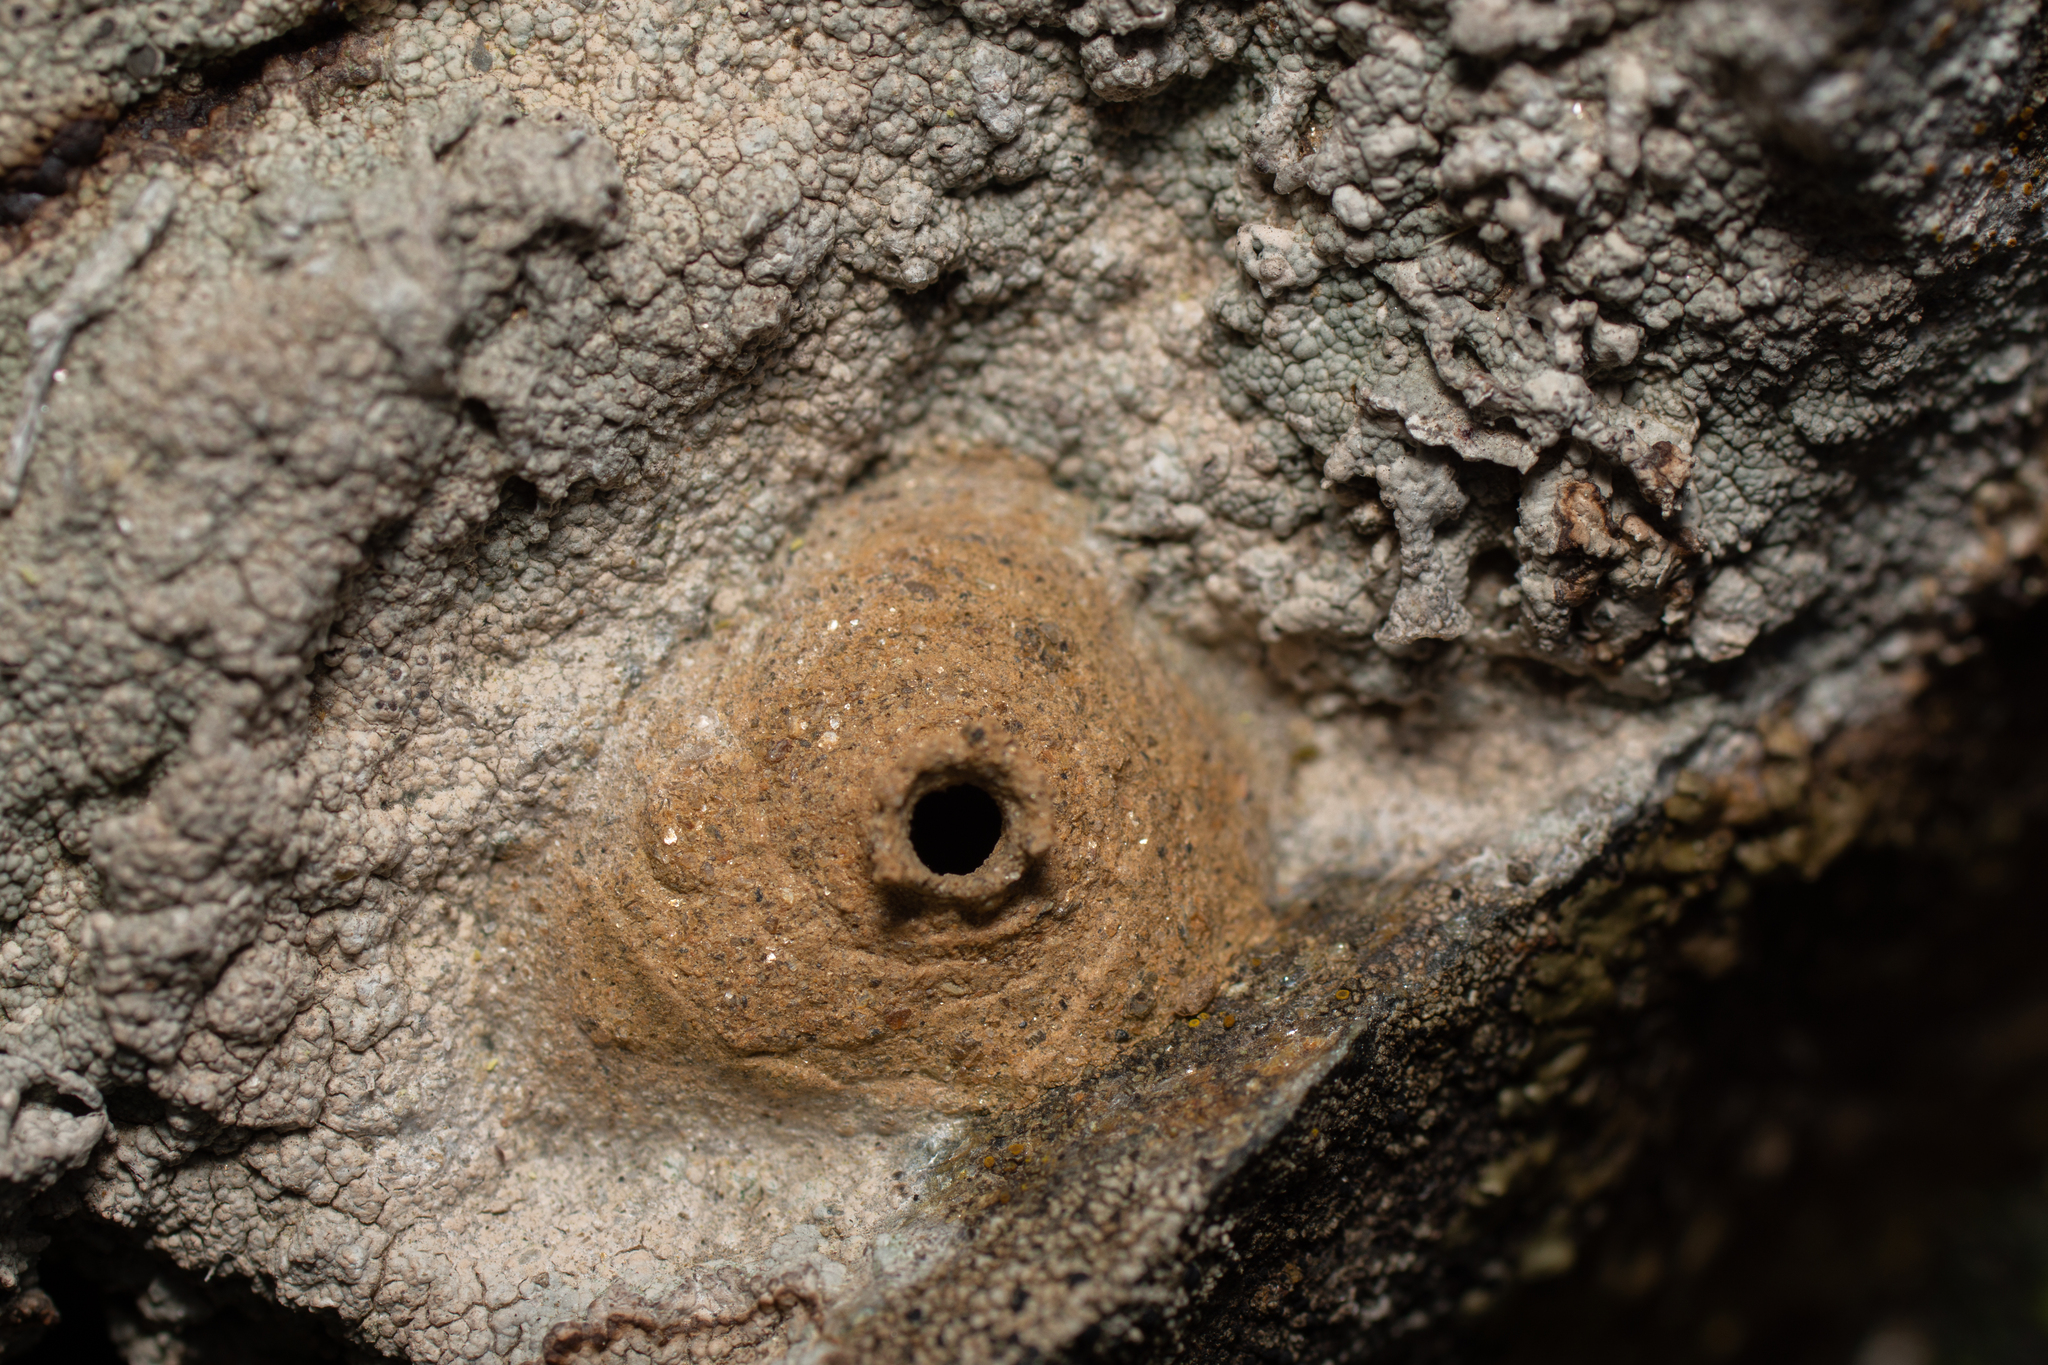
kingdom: Animalia
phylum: Arthropoda
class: Insecta
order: Hymenoptera
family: Eumenidae
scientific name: Eumenidae
